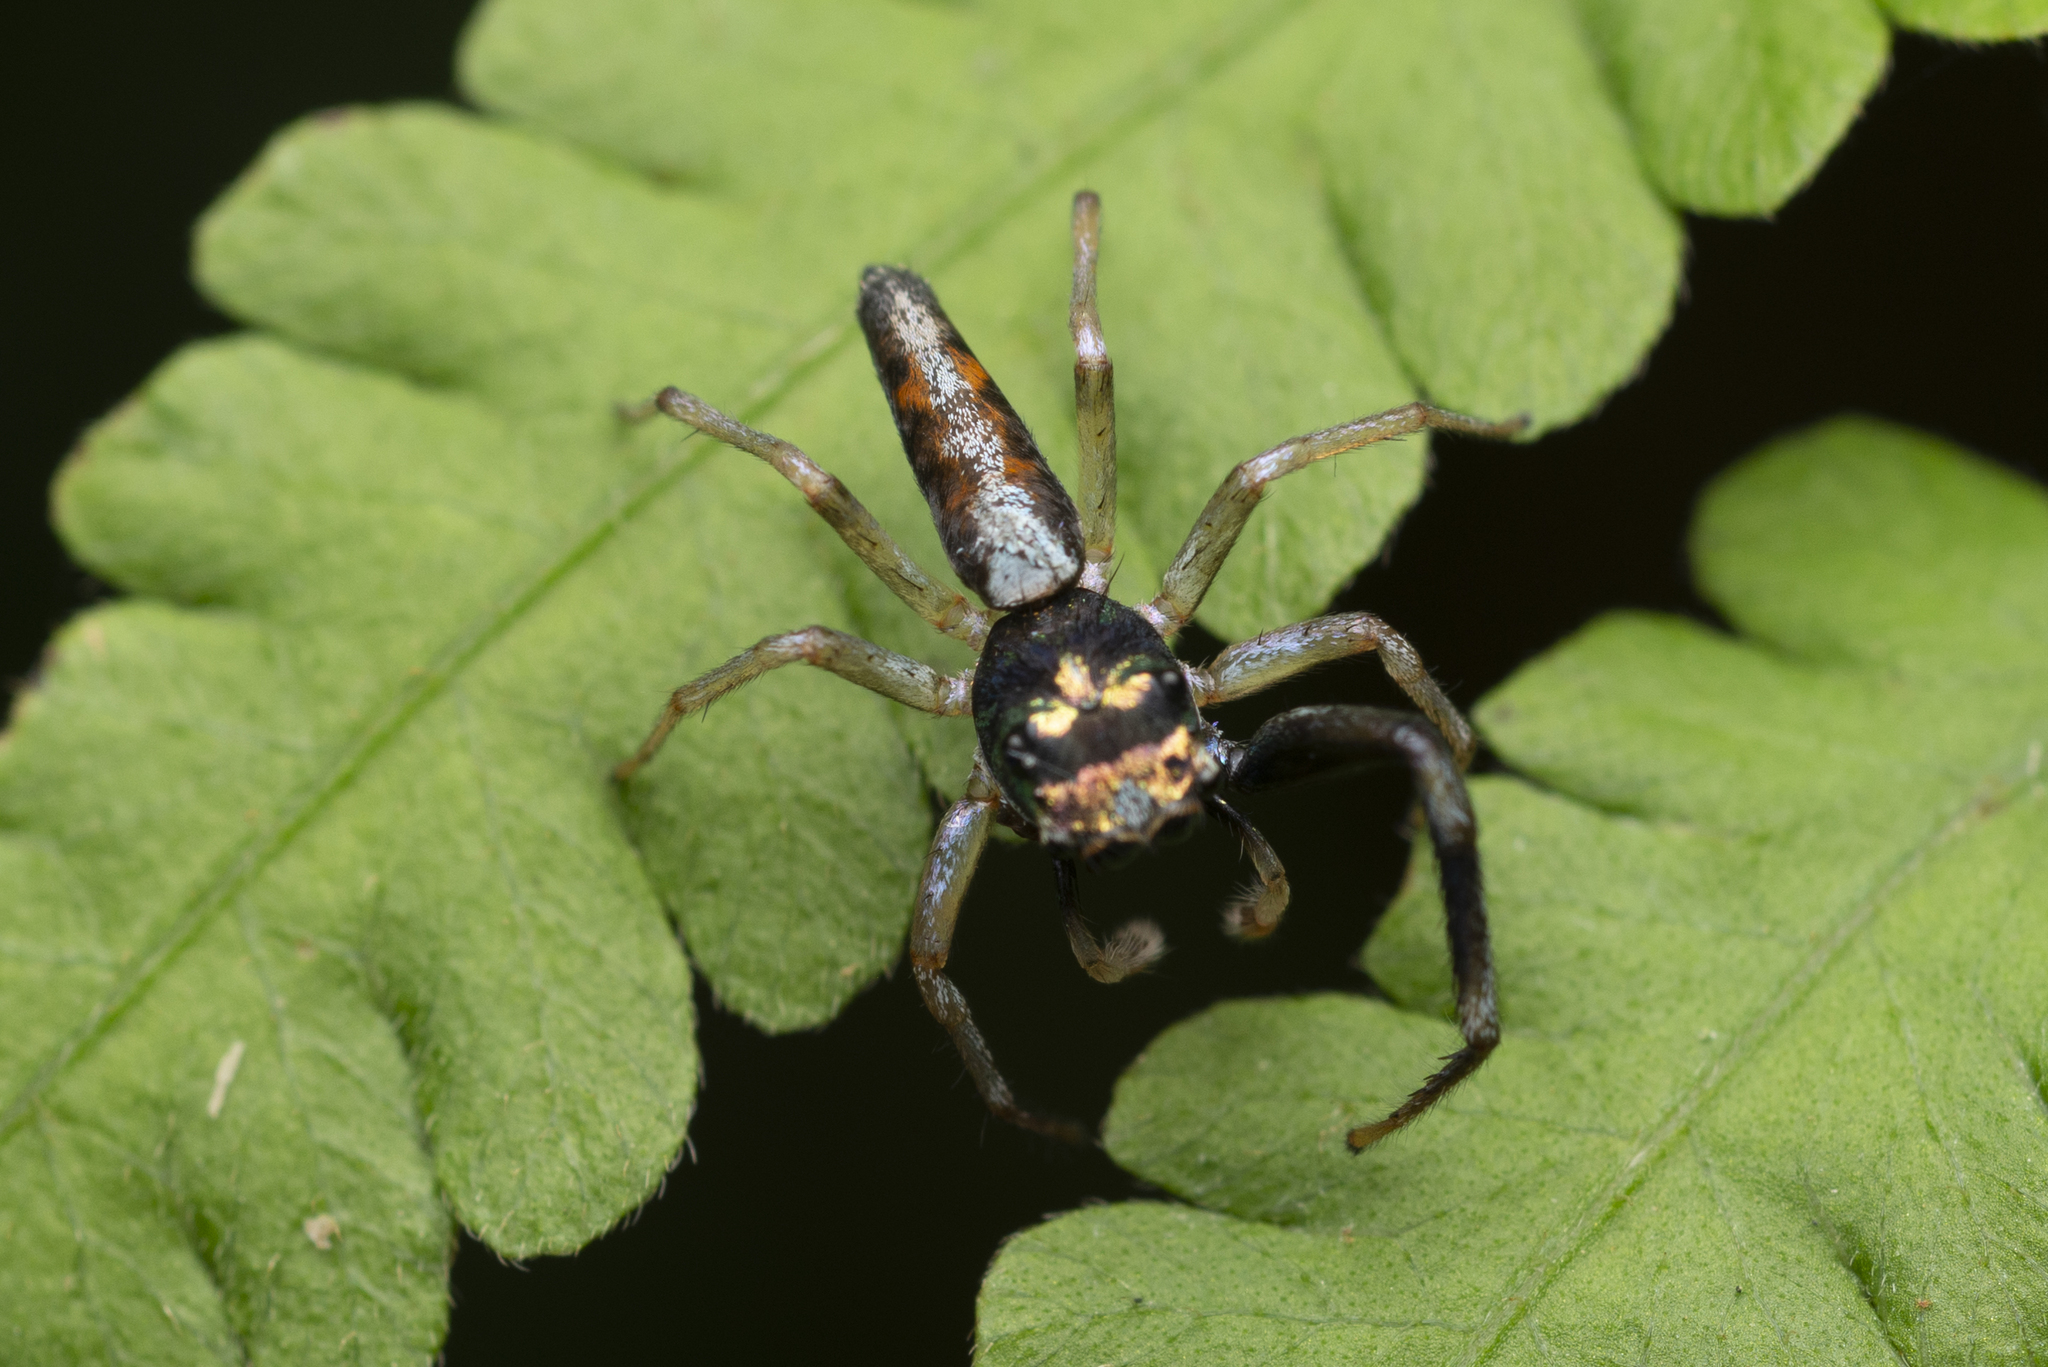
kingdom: Animalia
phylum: Arthropoda
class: Arachnida
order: Araneae
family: Salticidae
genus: Chrysilla
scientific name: Chrysilla acerosa
